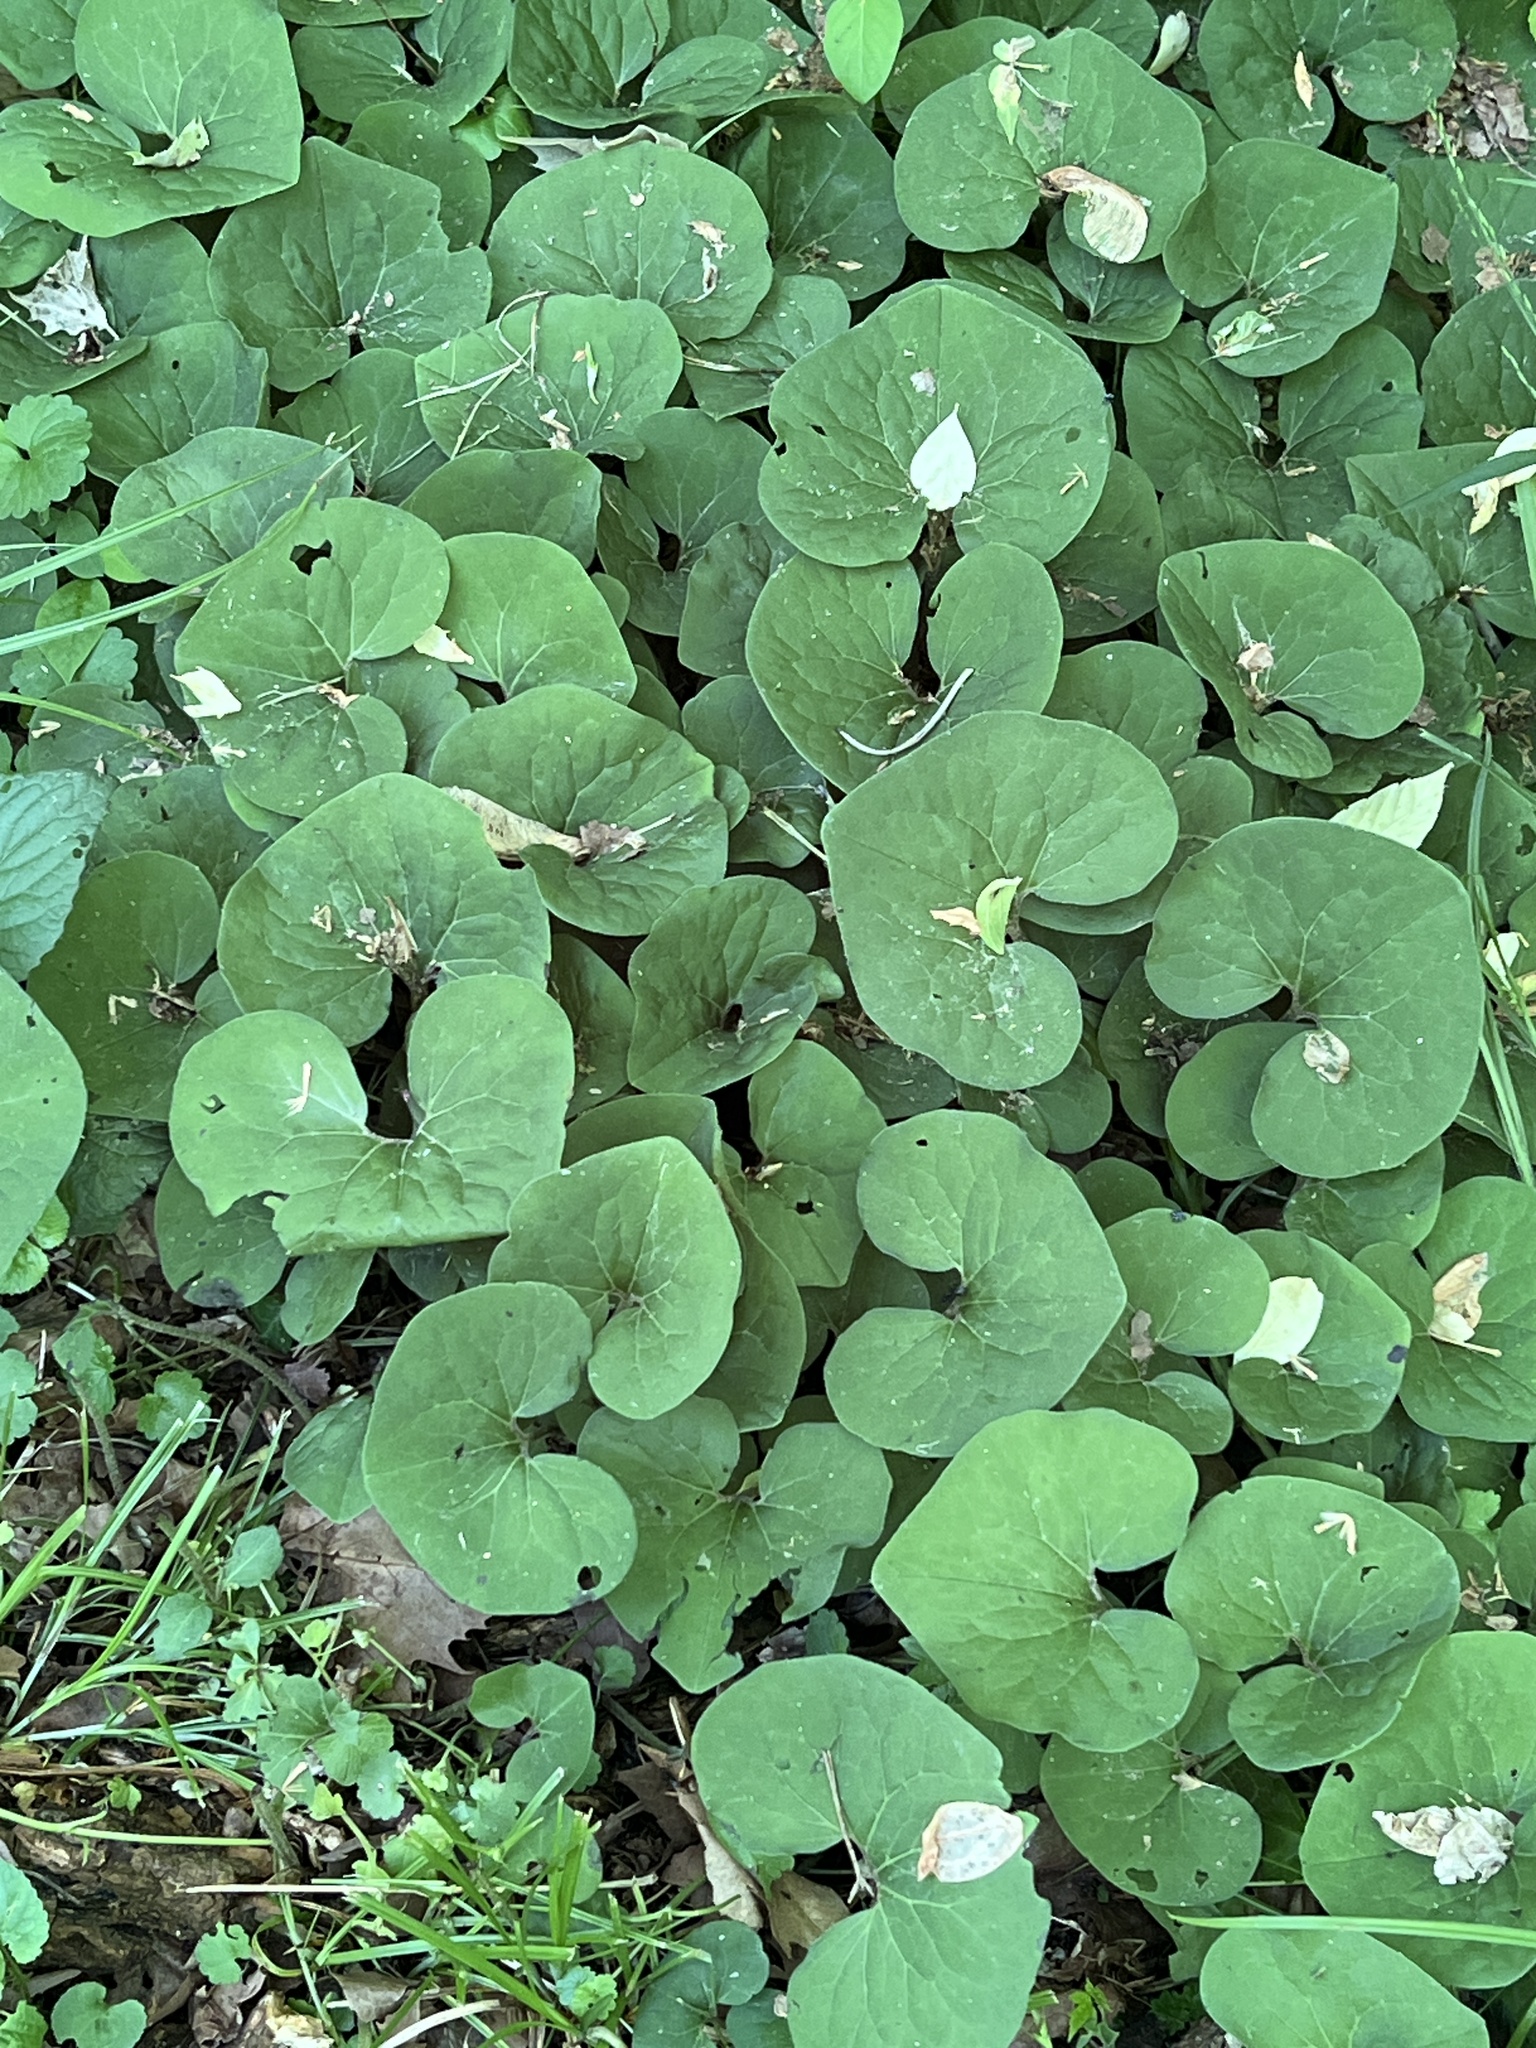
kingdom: Plantae
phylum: Tracheophyta
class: Magnoliopsida
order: Piperales
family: Aristolochiaceae
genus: Asarum
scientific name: Asarum canadense
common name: Wild ginger
